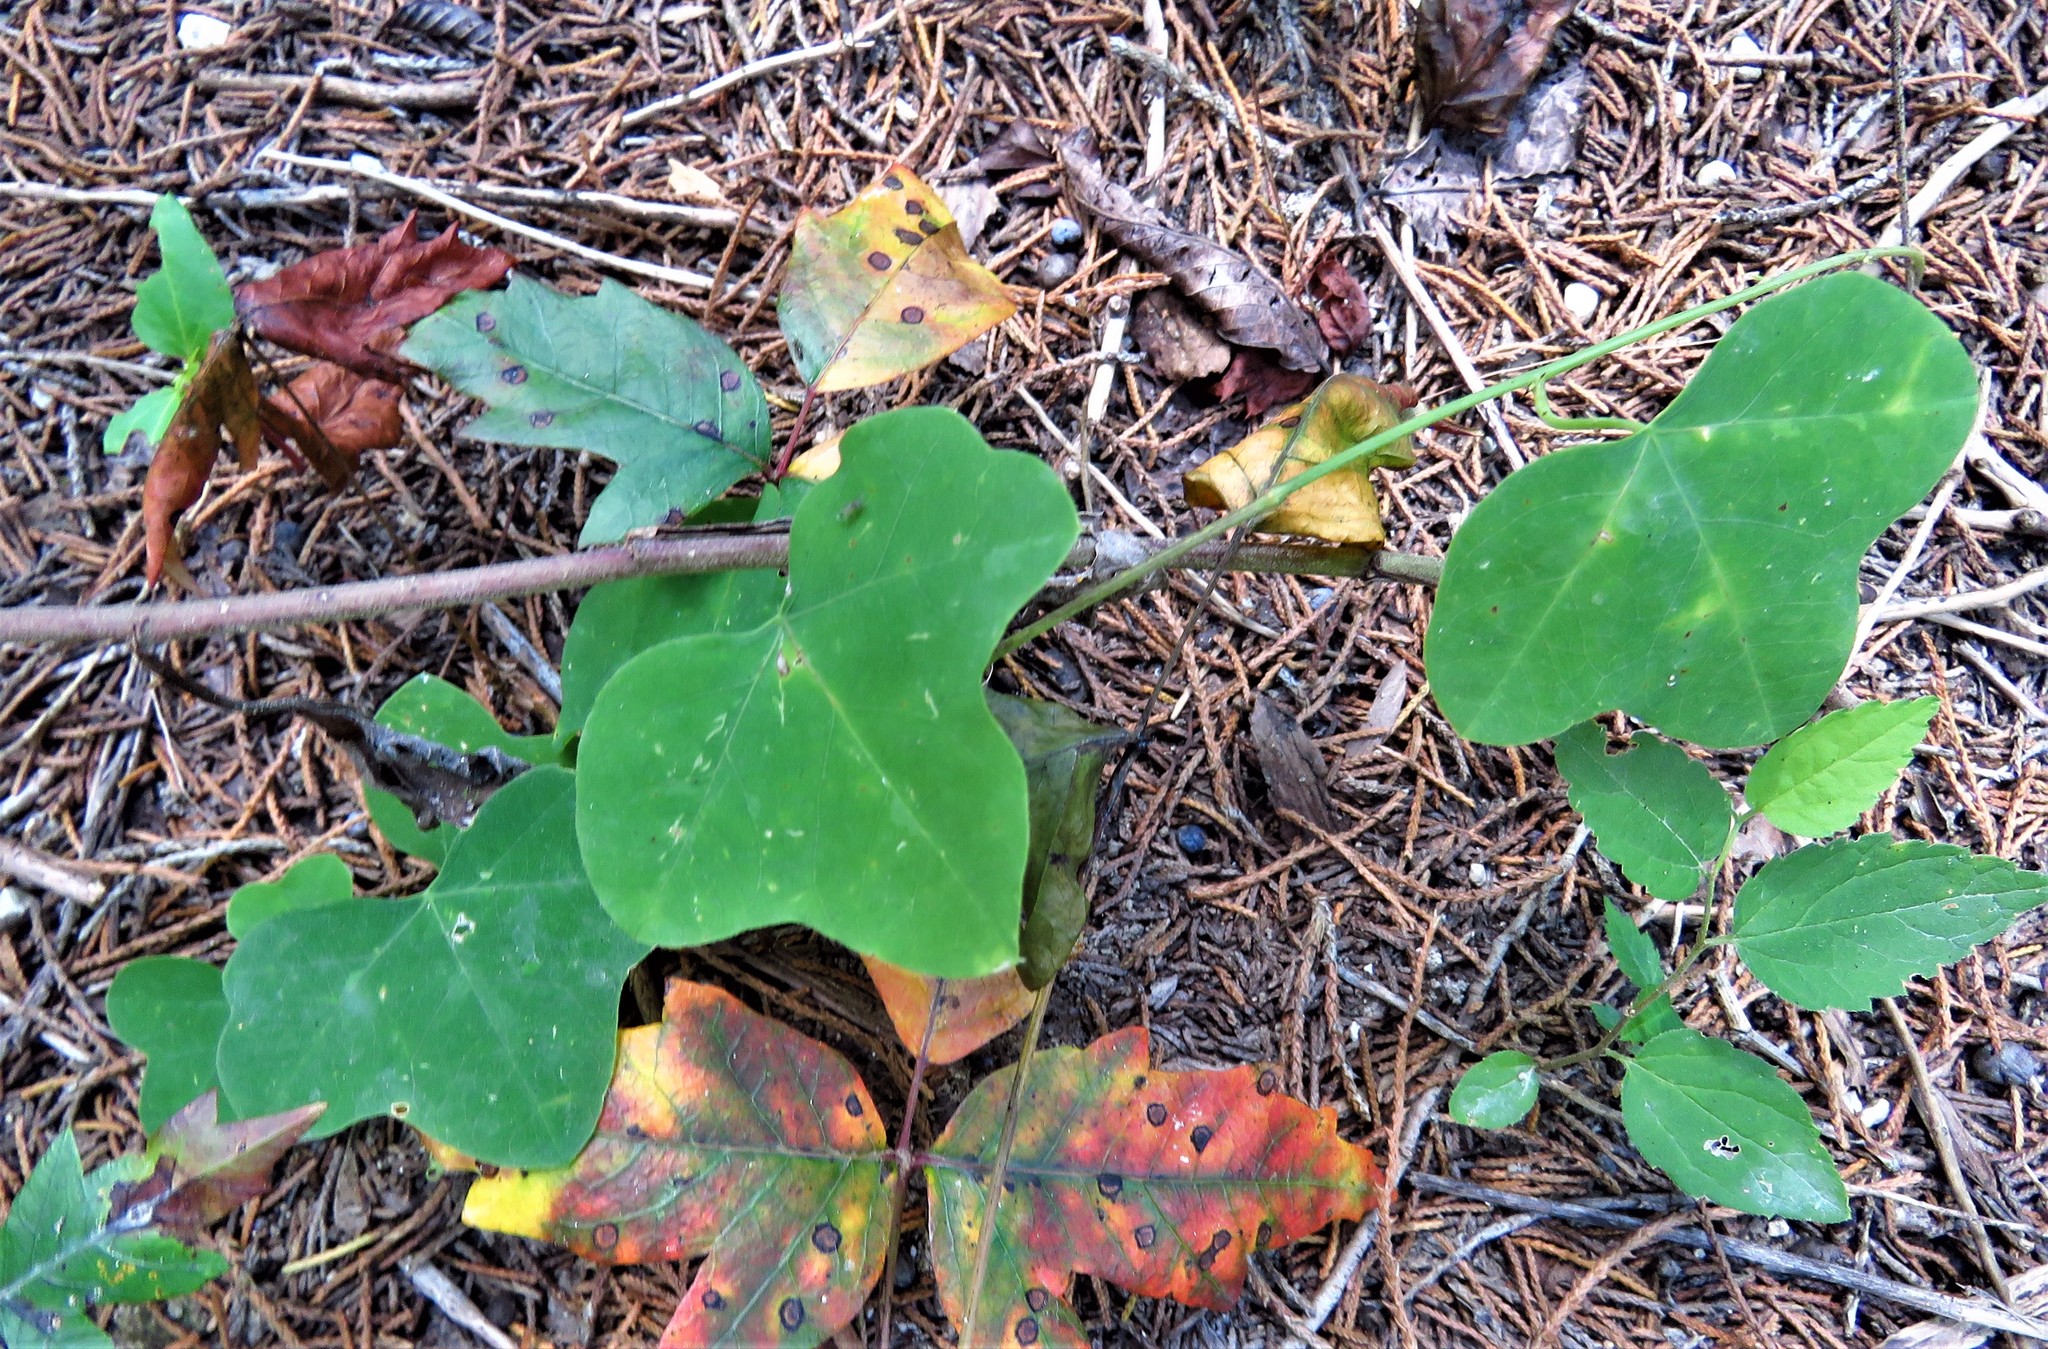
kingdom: Plantae
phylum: Tracheophyta
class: Magnoliopsida
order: Malpighiales
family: Passifloraceae
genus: Passiflora
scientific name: Passiflora lutea
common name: Yellow passionflower
